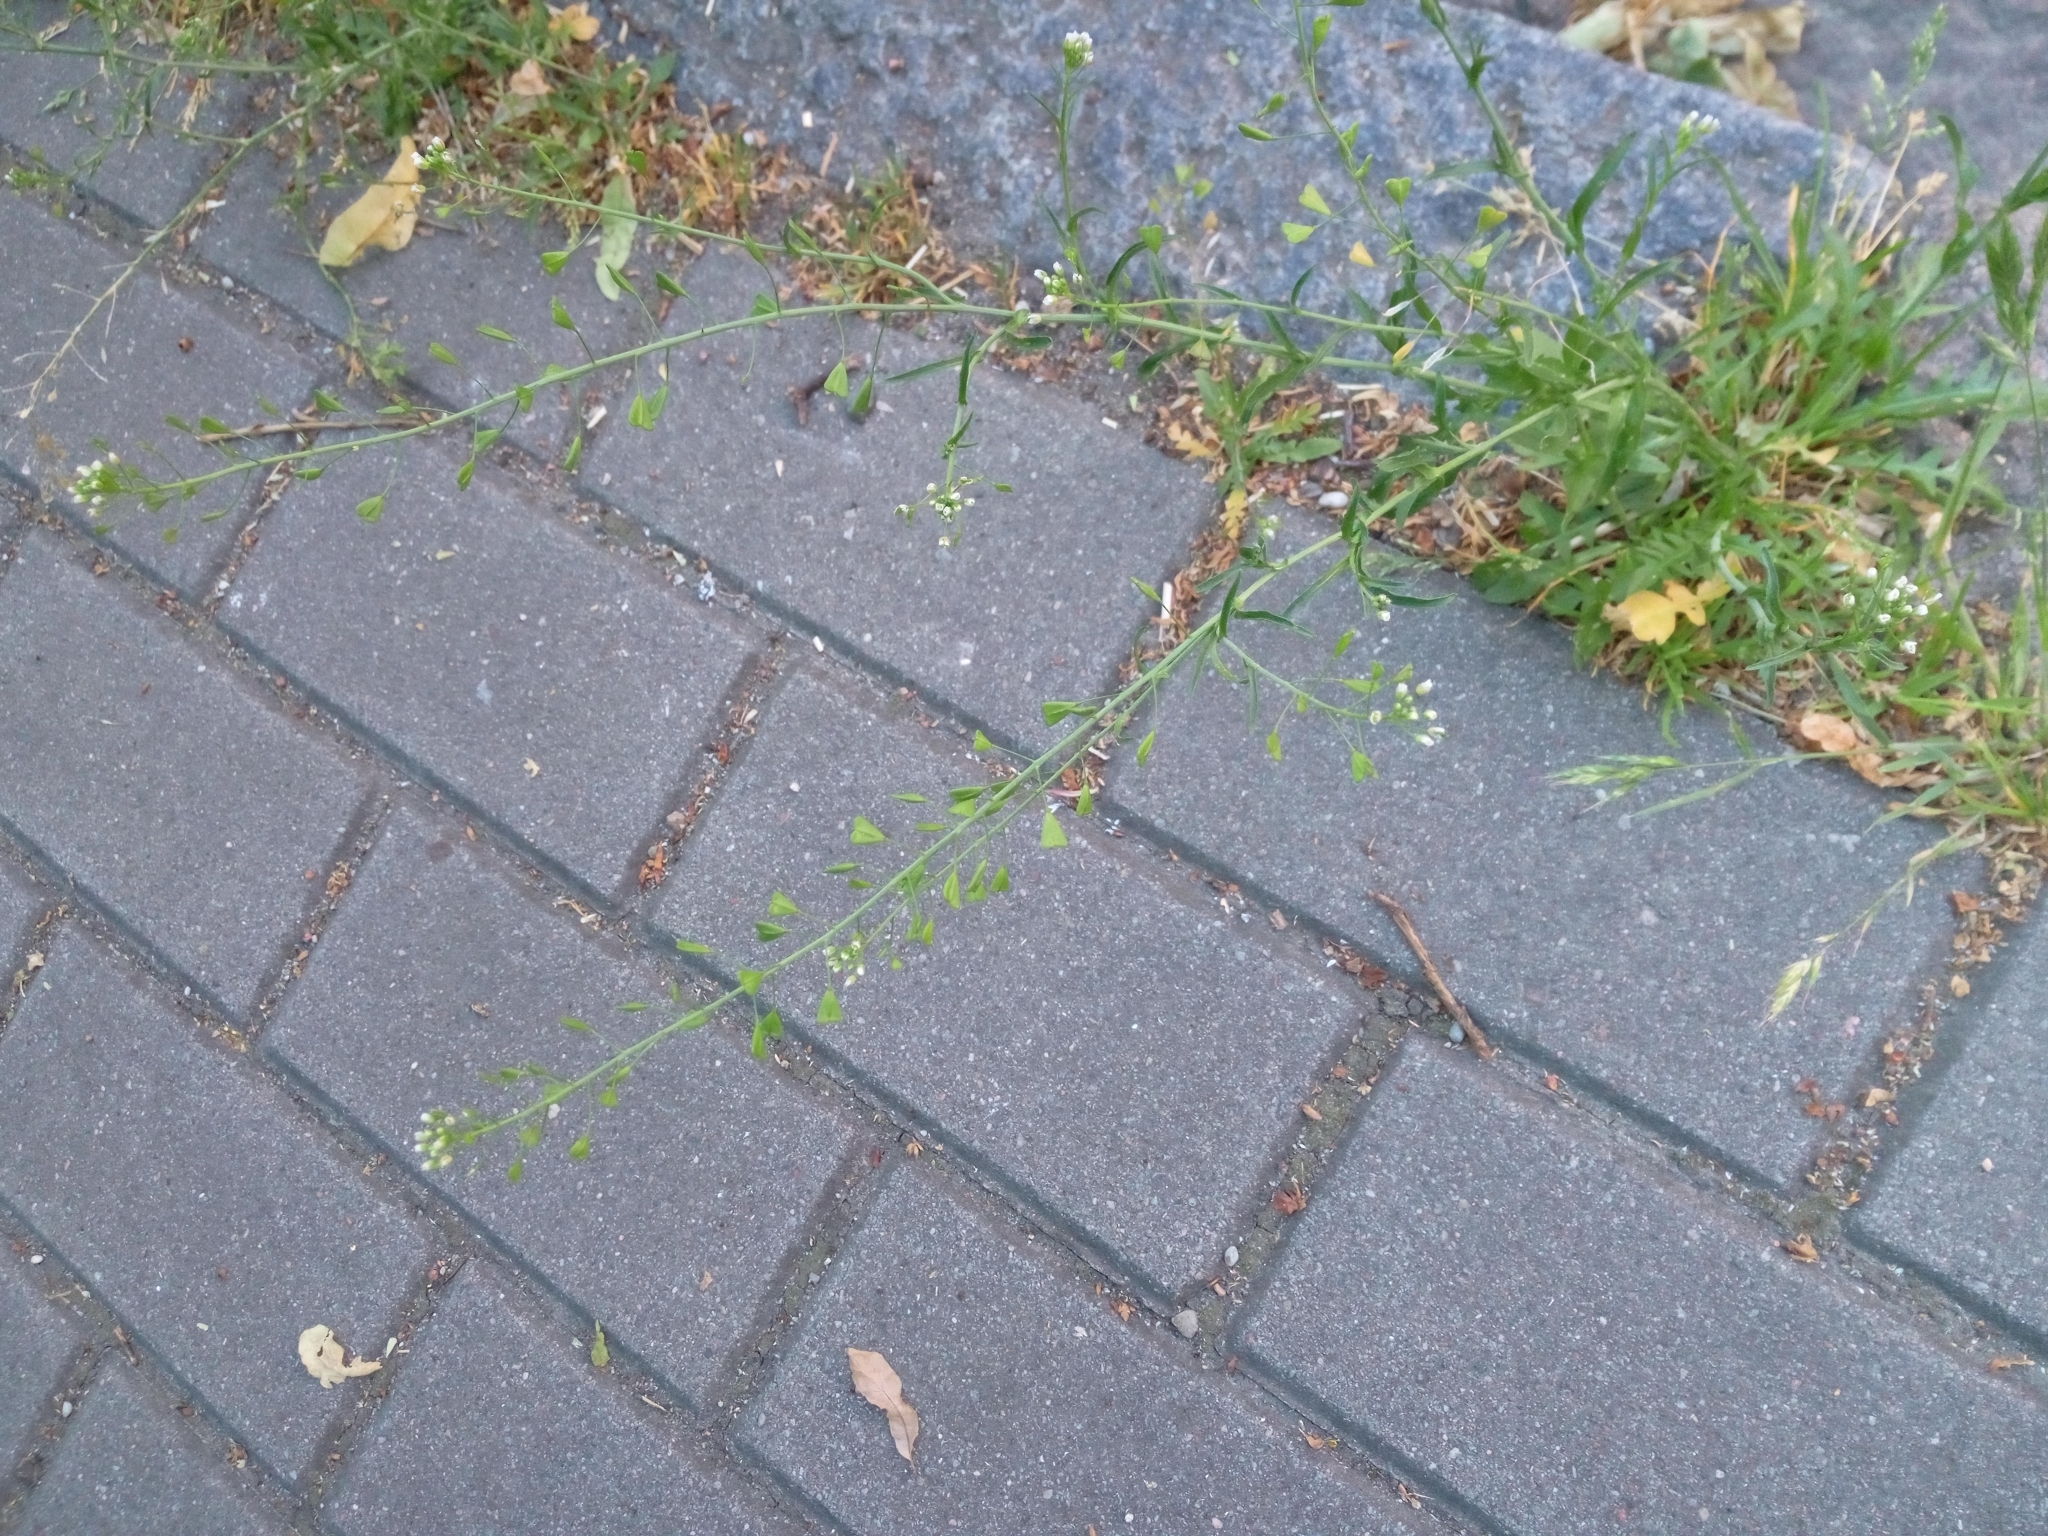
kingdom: Plantae
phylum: Tracheophyta
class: Magnoliopsida
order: Brassicales
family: Brassicaceae
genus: Capsella
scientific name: Capsella bursa-pastoris
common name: Shepherd's purse
